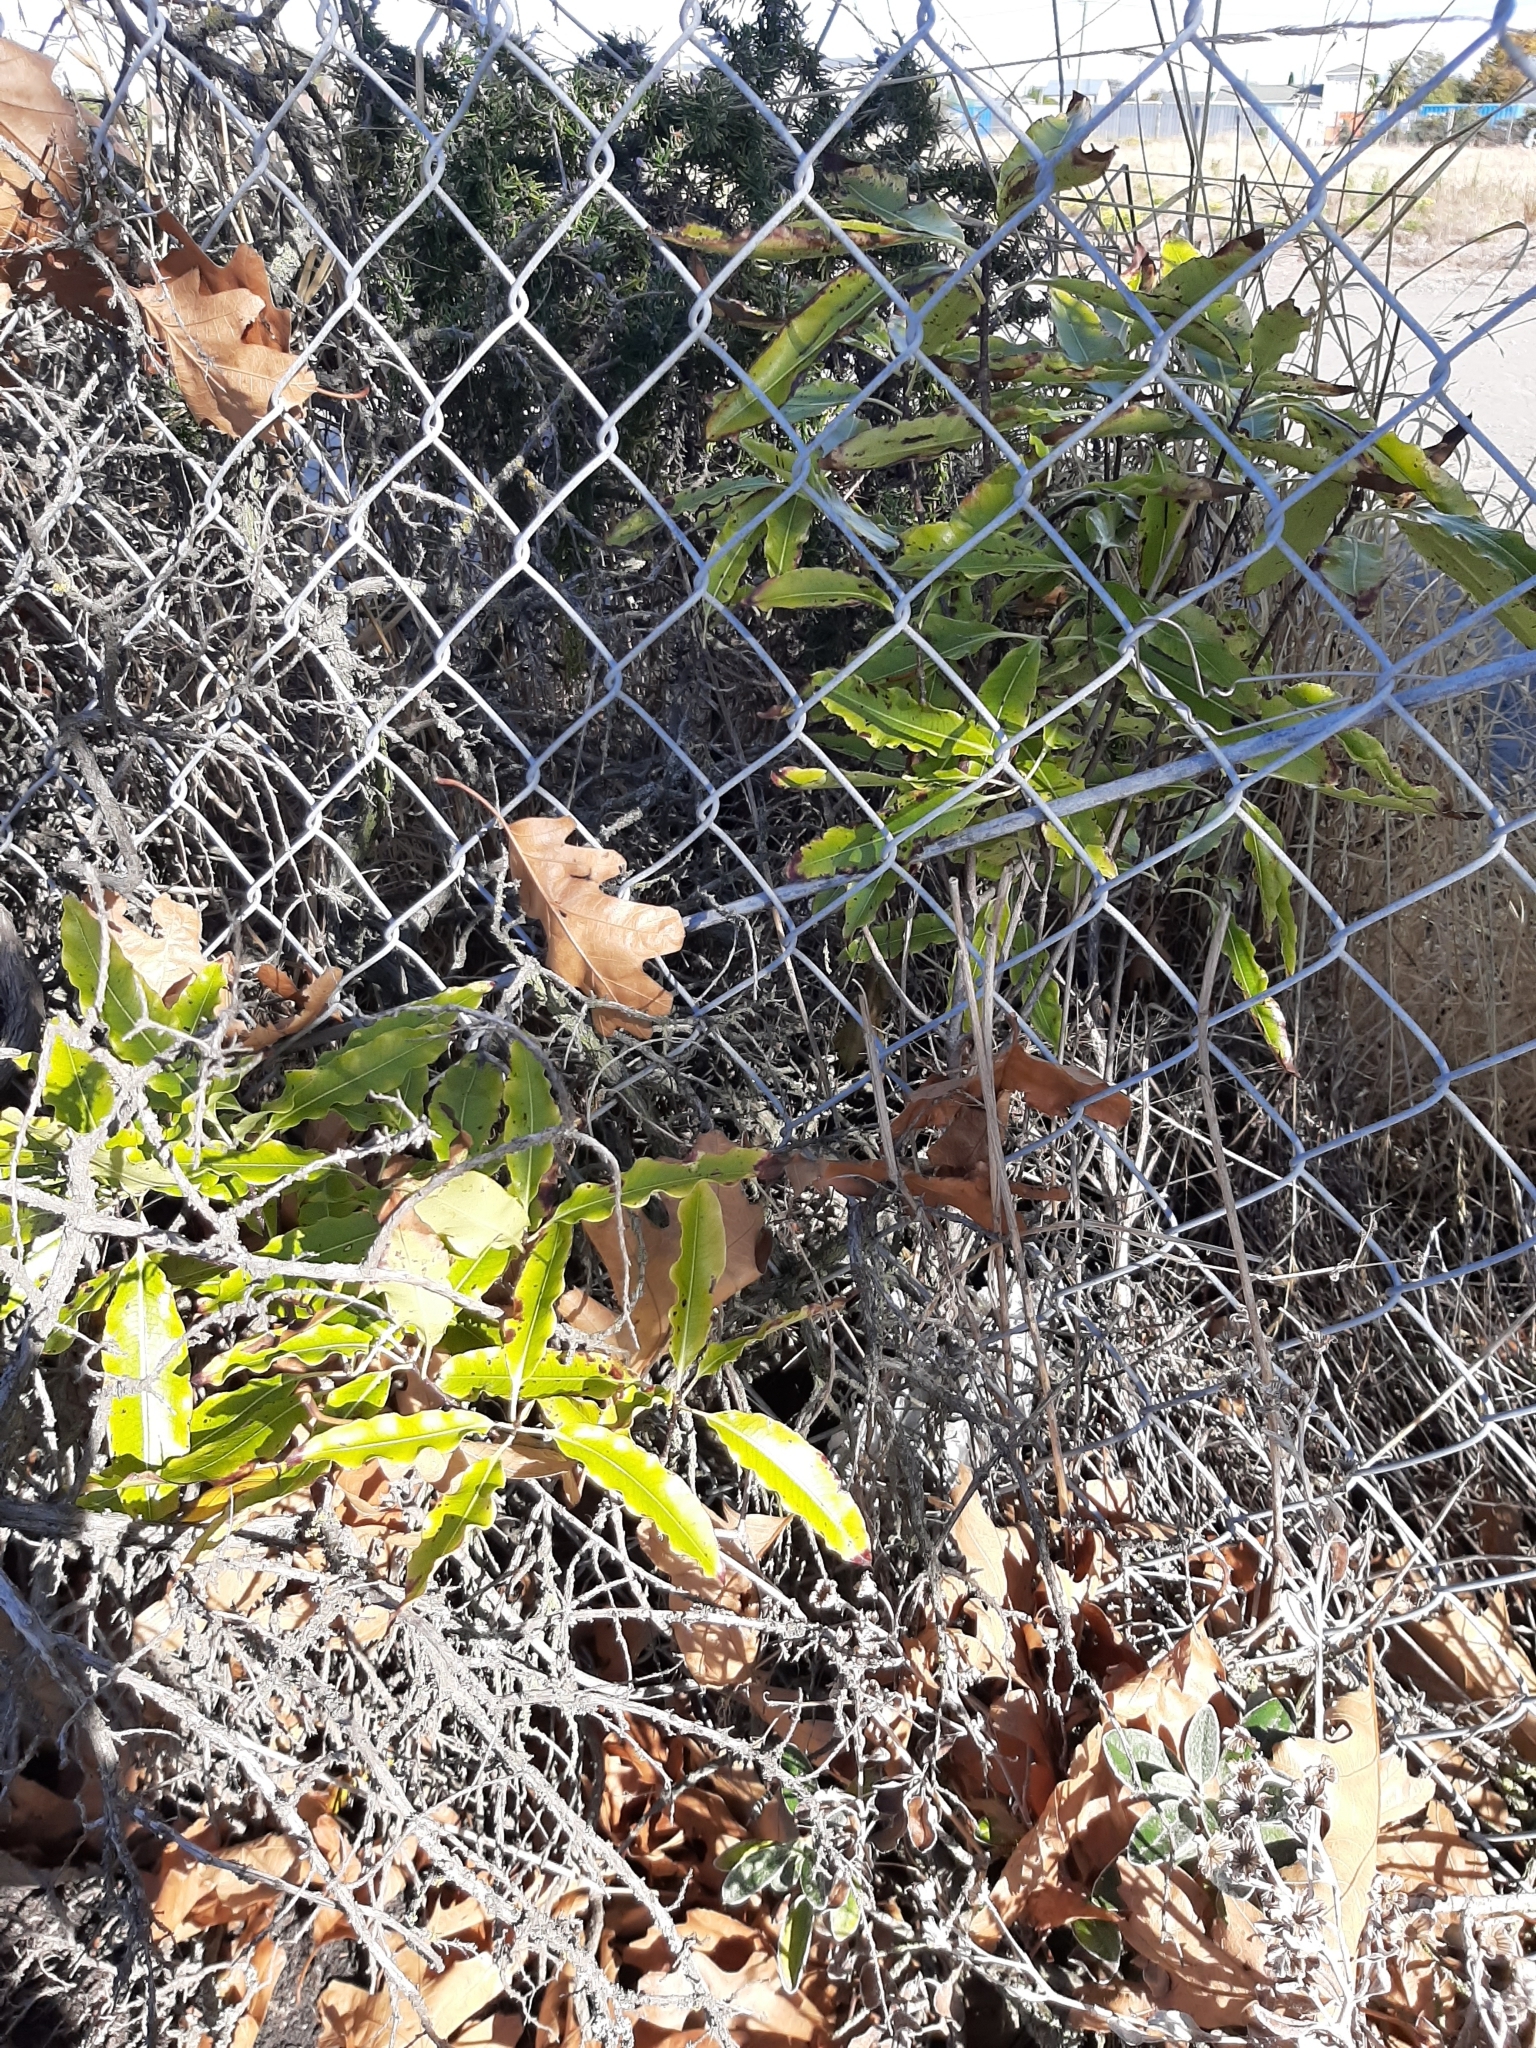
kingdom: Plantae
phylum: Tracheophyta
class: Magnoliopsida
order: Apiales
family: Pittosporaceae
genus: Pittosporum
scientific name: Pittosporum eugenioides
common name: Lemonwood
